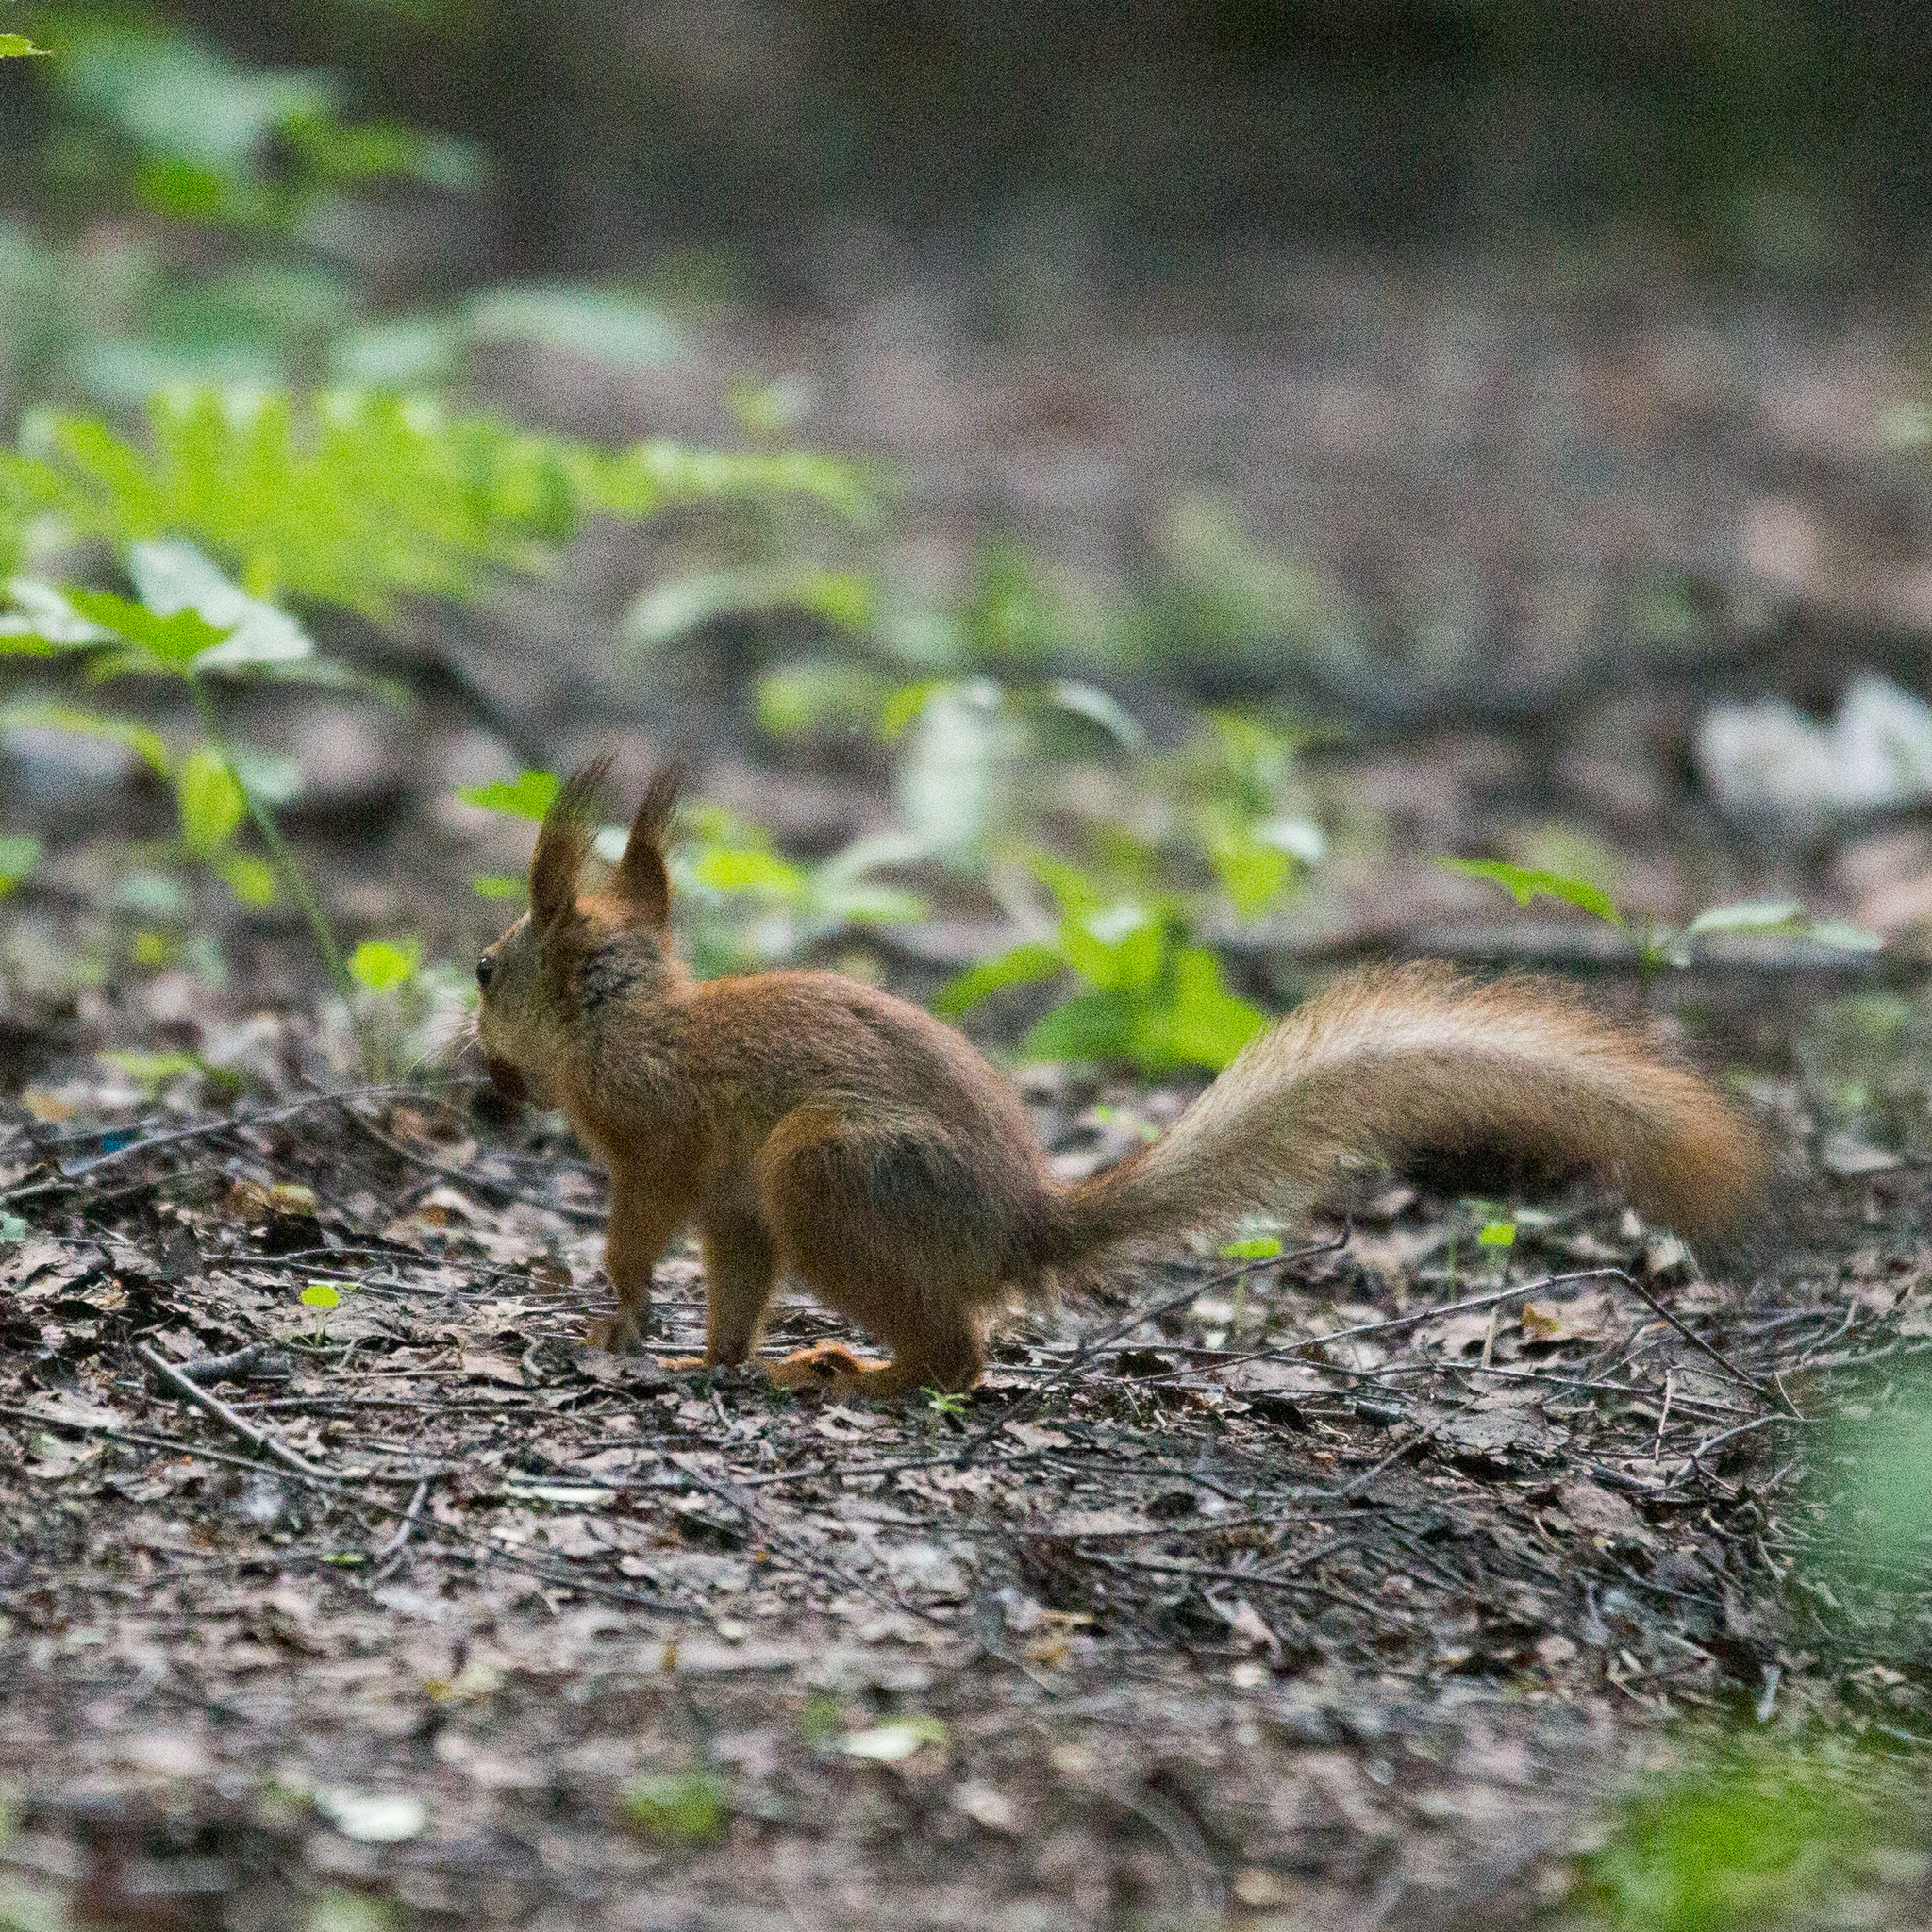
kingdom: Animalia
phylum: Chordata
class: Mammalia
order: Rodentia
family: Sciuridae
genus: Sciurus
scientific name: Sciurus vulgaris
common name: Eurasian red squirrel
